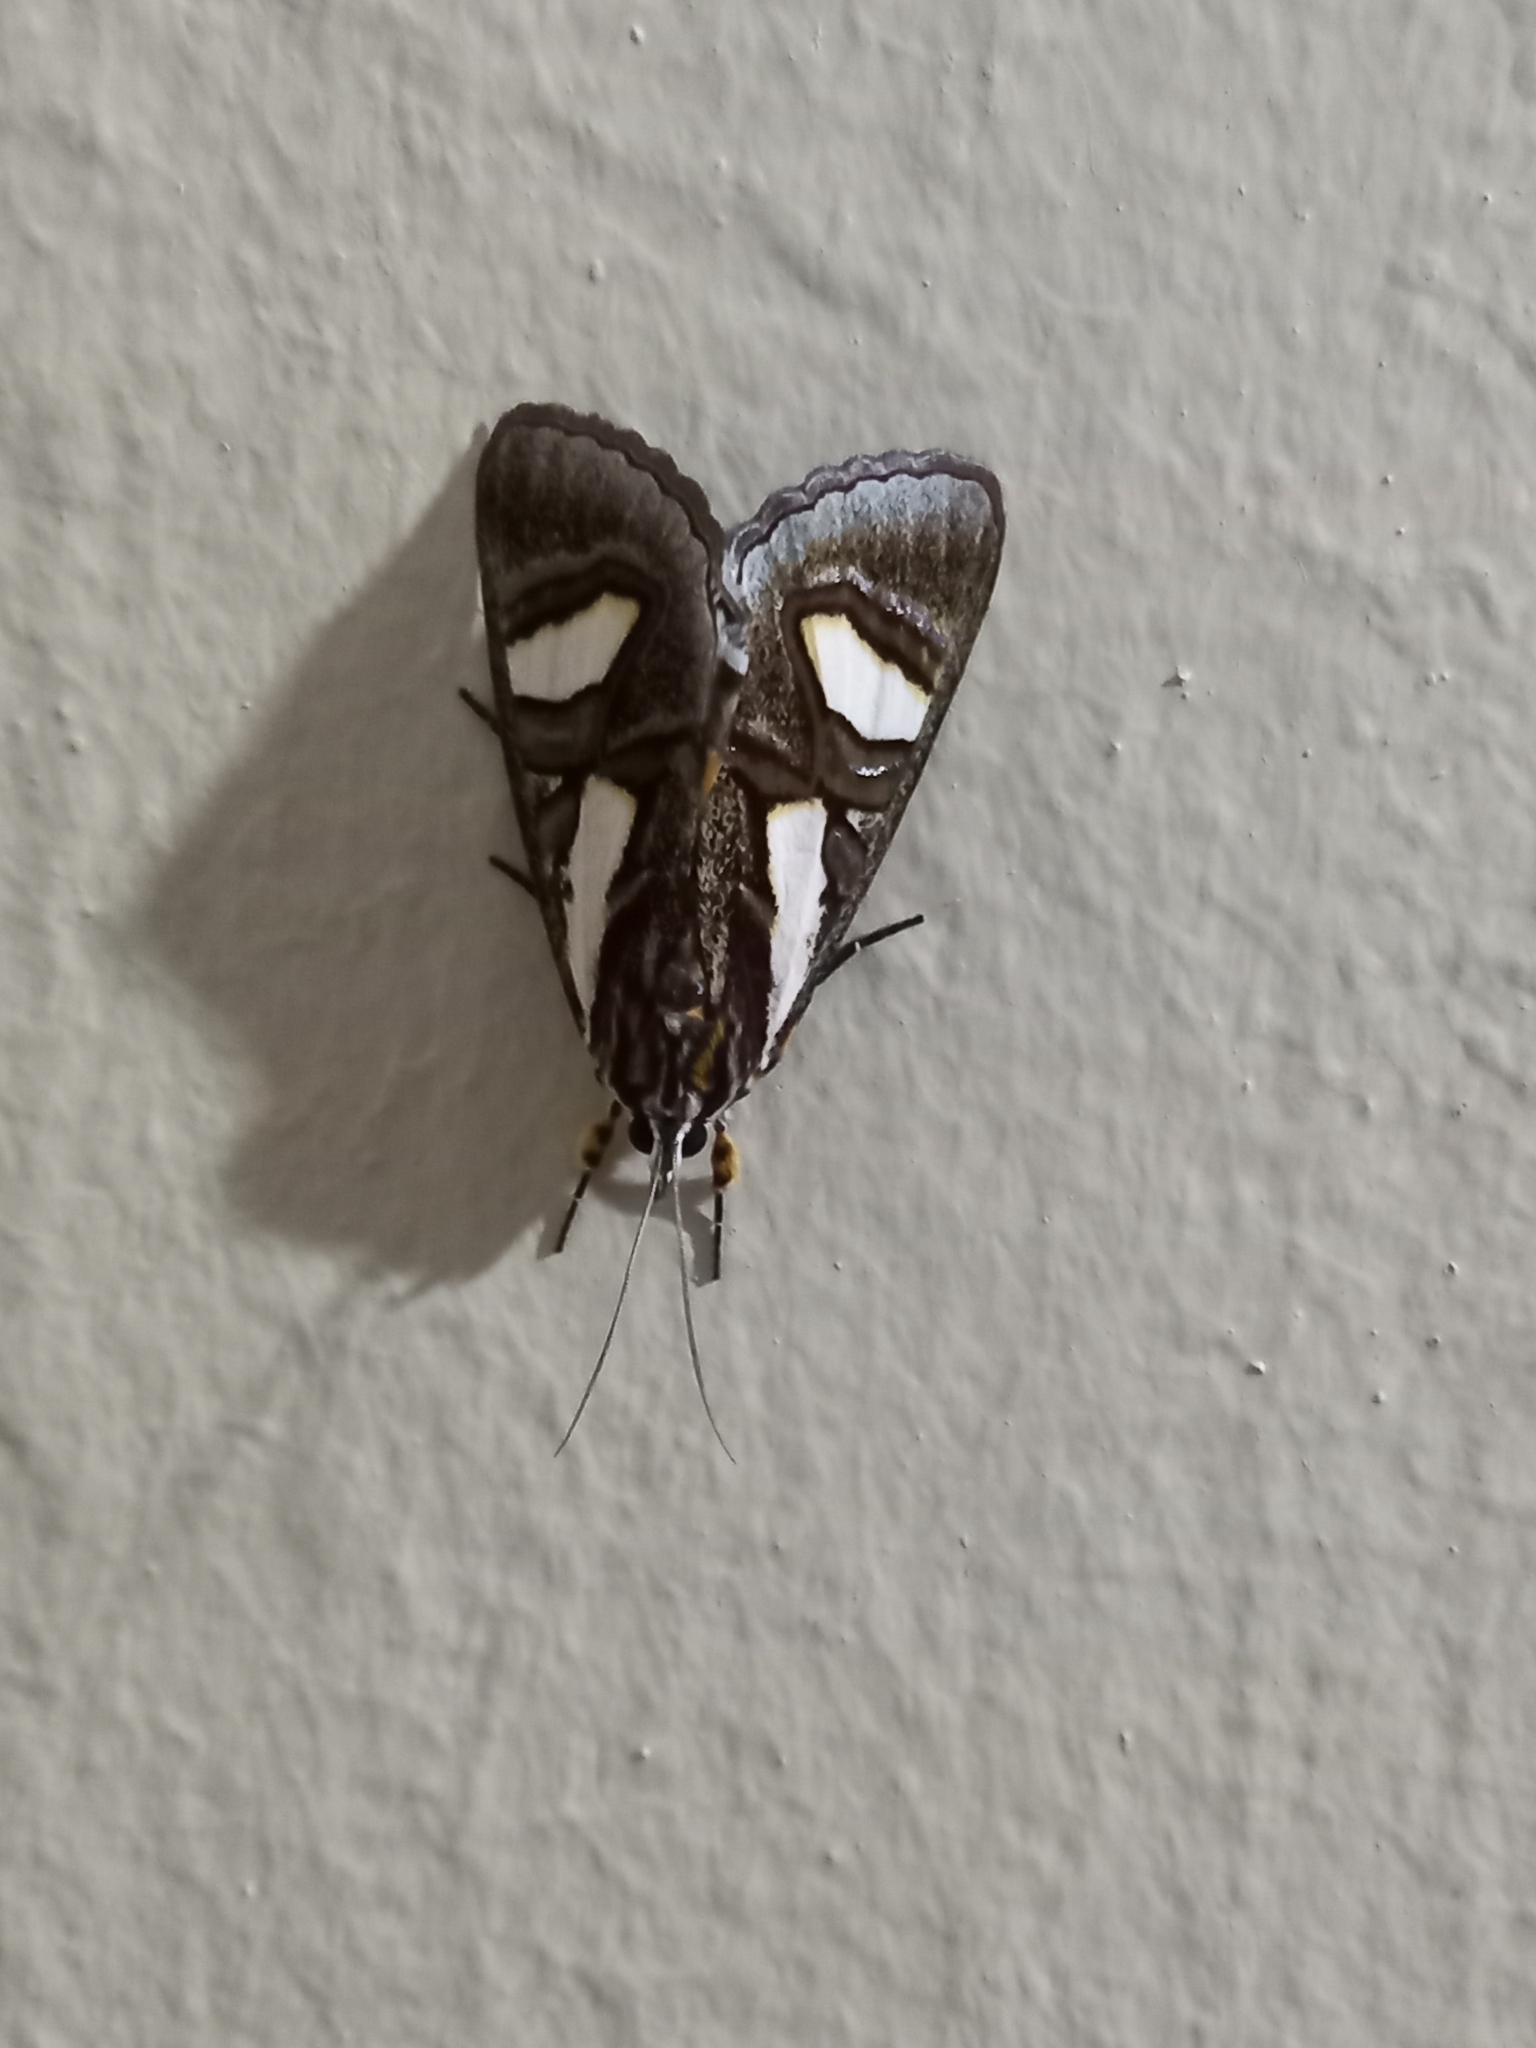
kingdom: Animalia
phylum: Arthropoda
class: Insecta
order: Lepidoptera
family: Noctuidae
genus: Agoma
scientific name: Agoma trimenii
